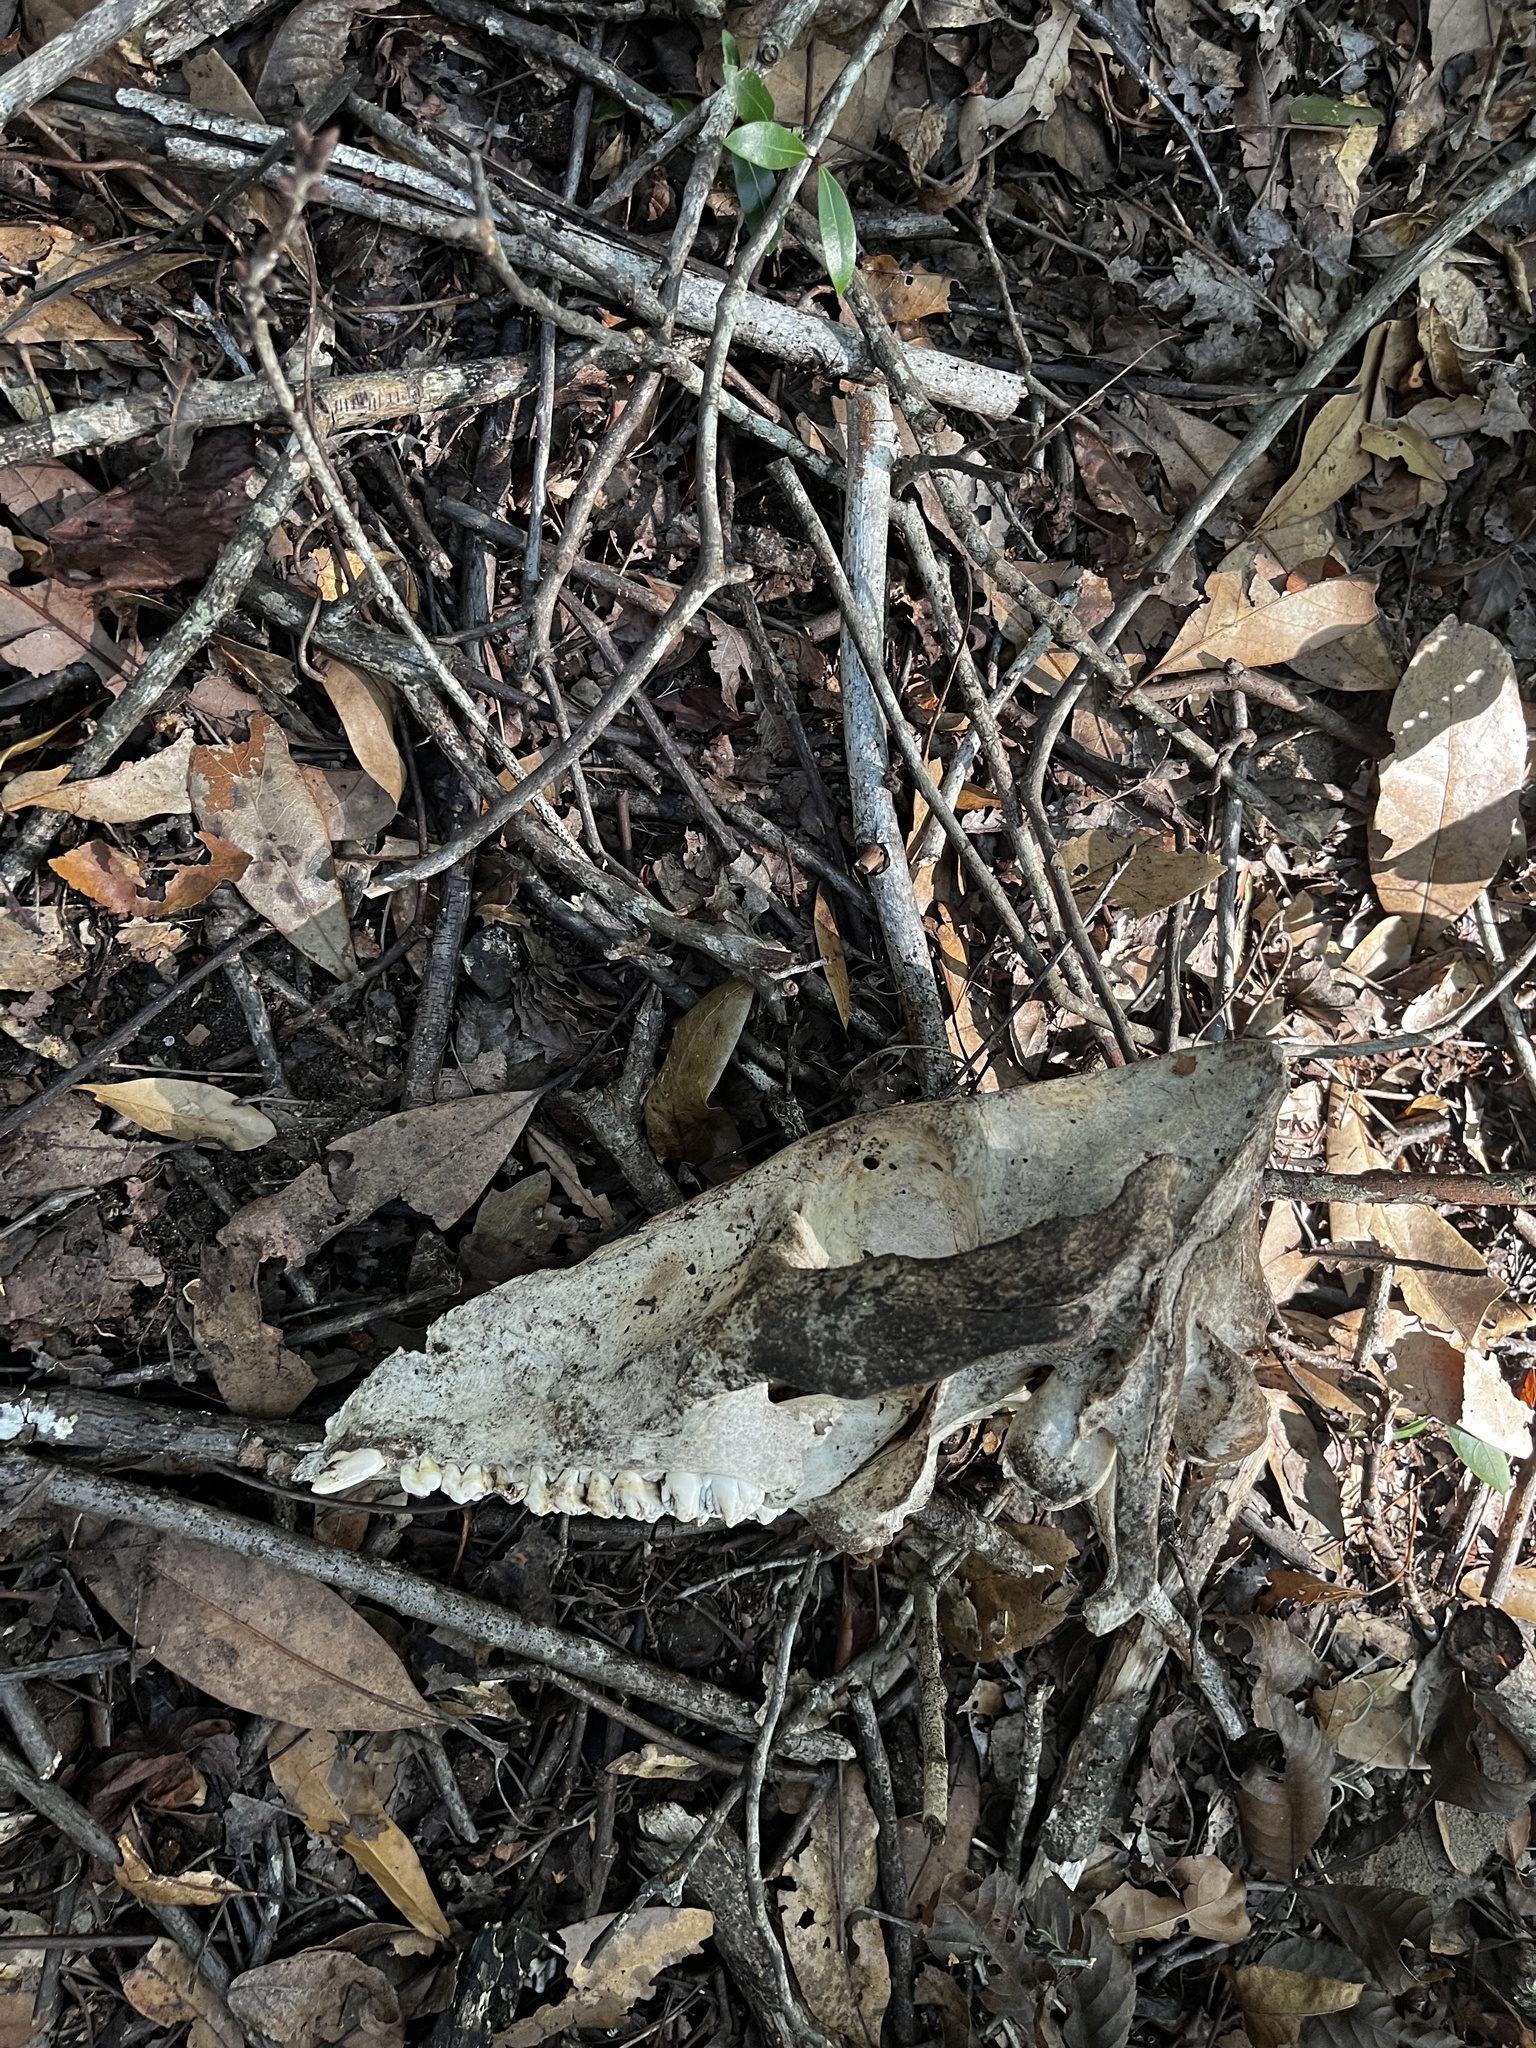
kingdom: Animalia
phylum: Chordata
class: Mammalia
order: Artiodactyla
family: Suidae
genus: Sus
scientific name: Sus scrofa
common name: Wild boar
